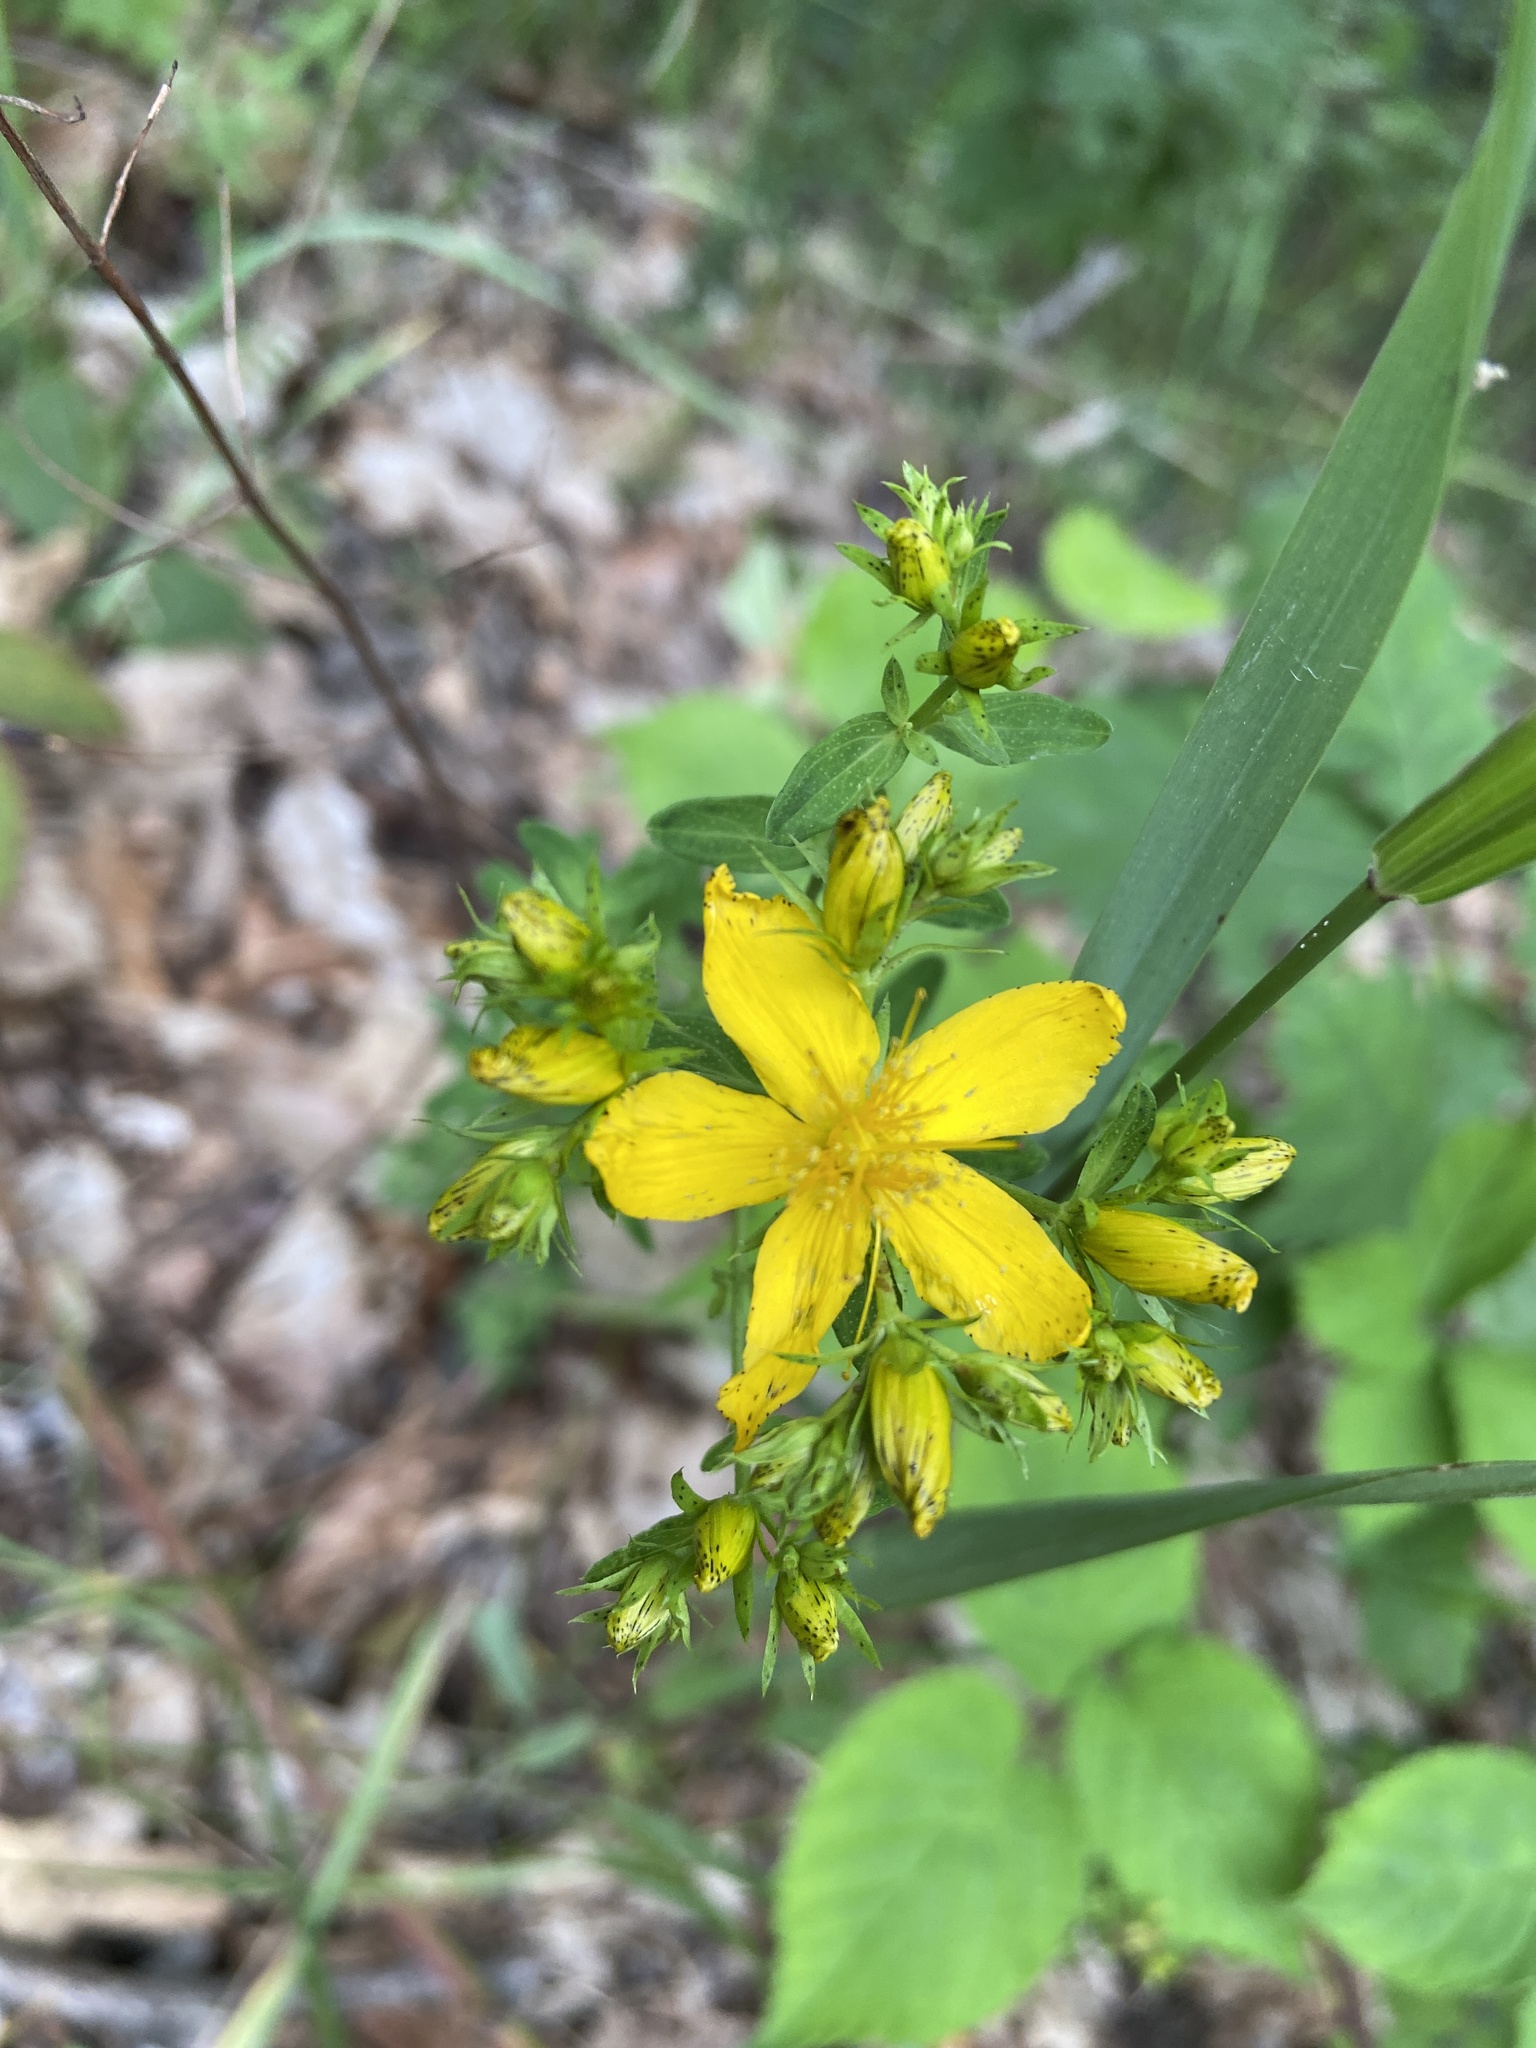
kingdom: Plantae
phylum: Tracheophyta
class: Magnoliopsida
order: Malpighiales
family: Hypericaceae
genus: Hypericum
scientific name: Hypericum perforatum
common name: Common st. johnswort
